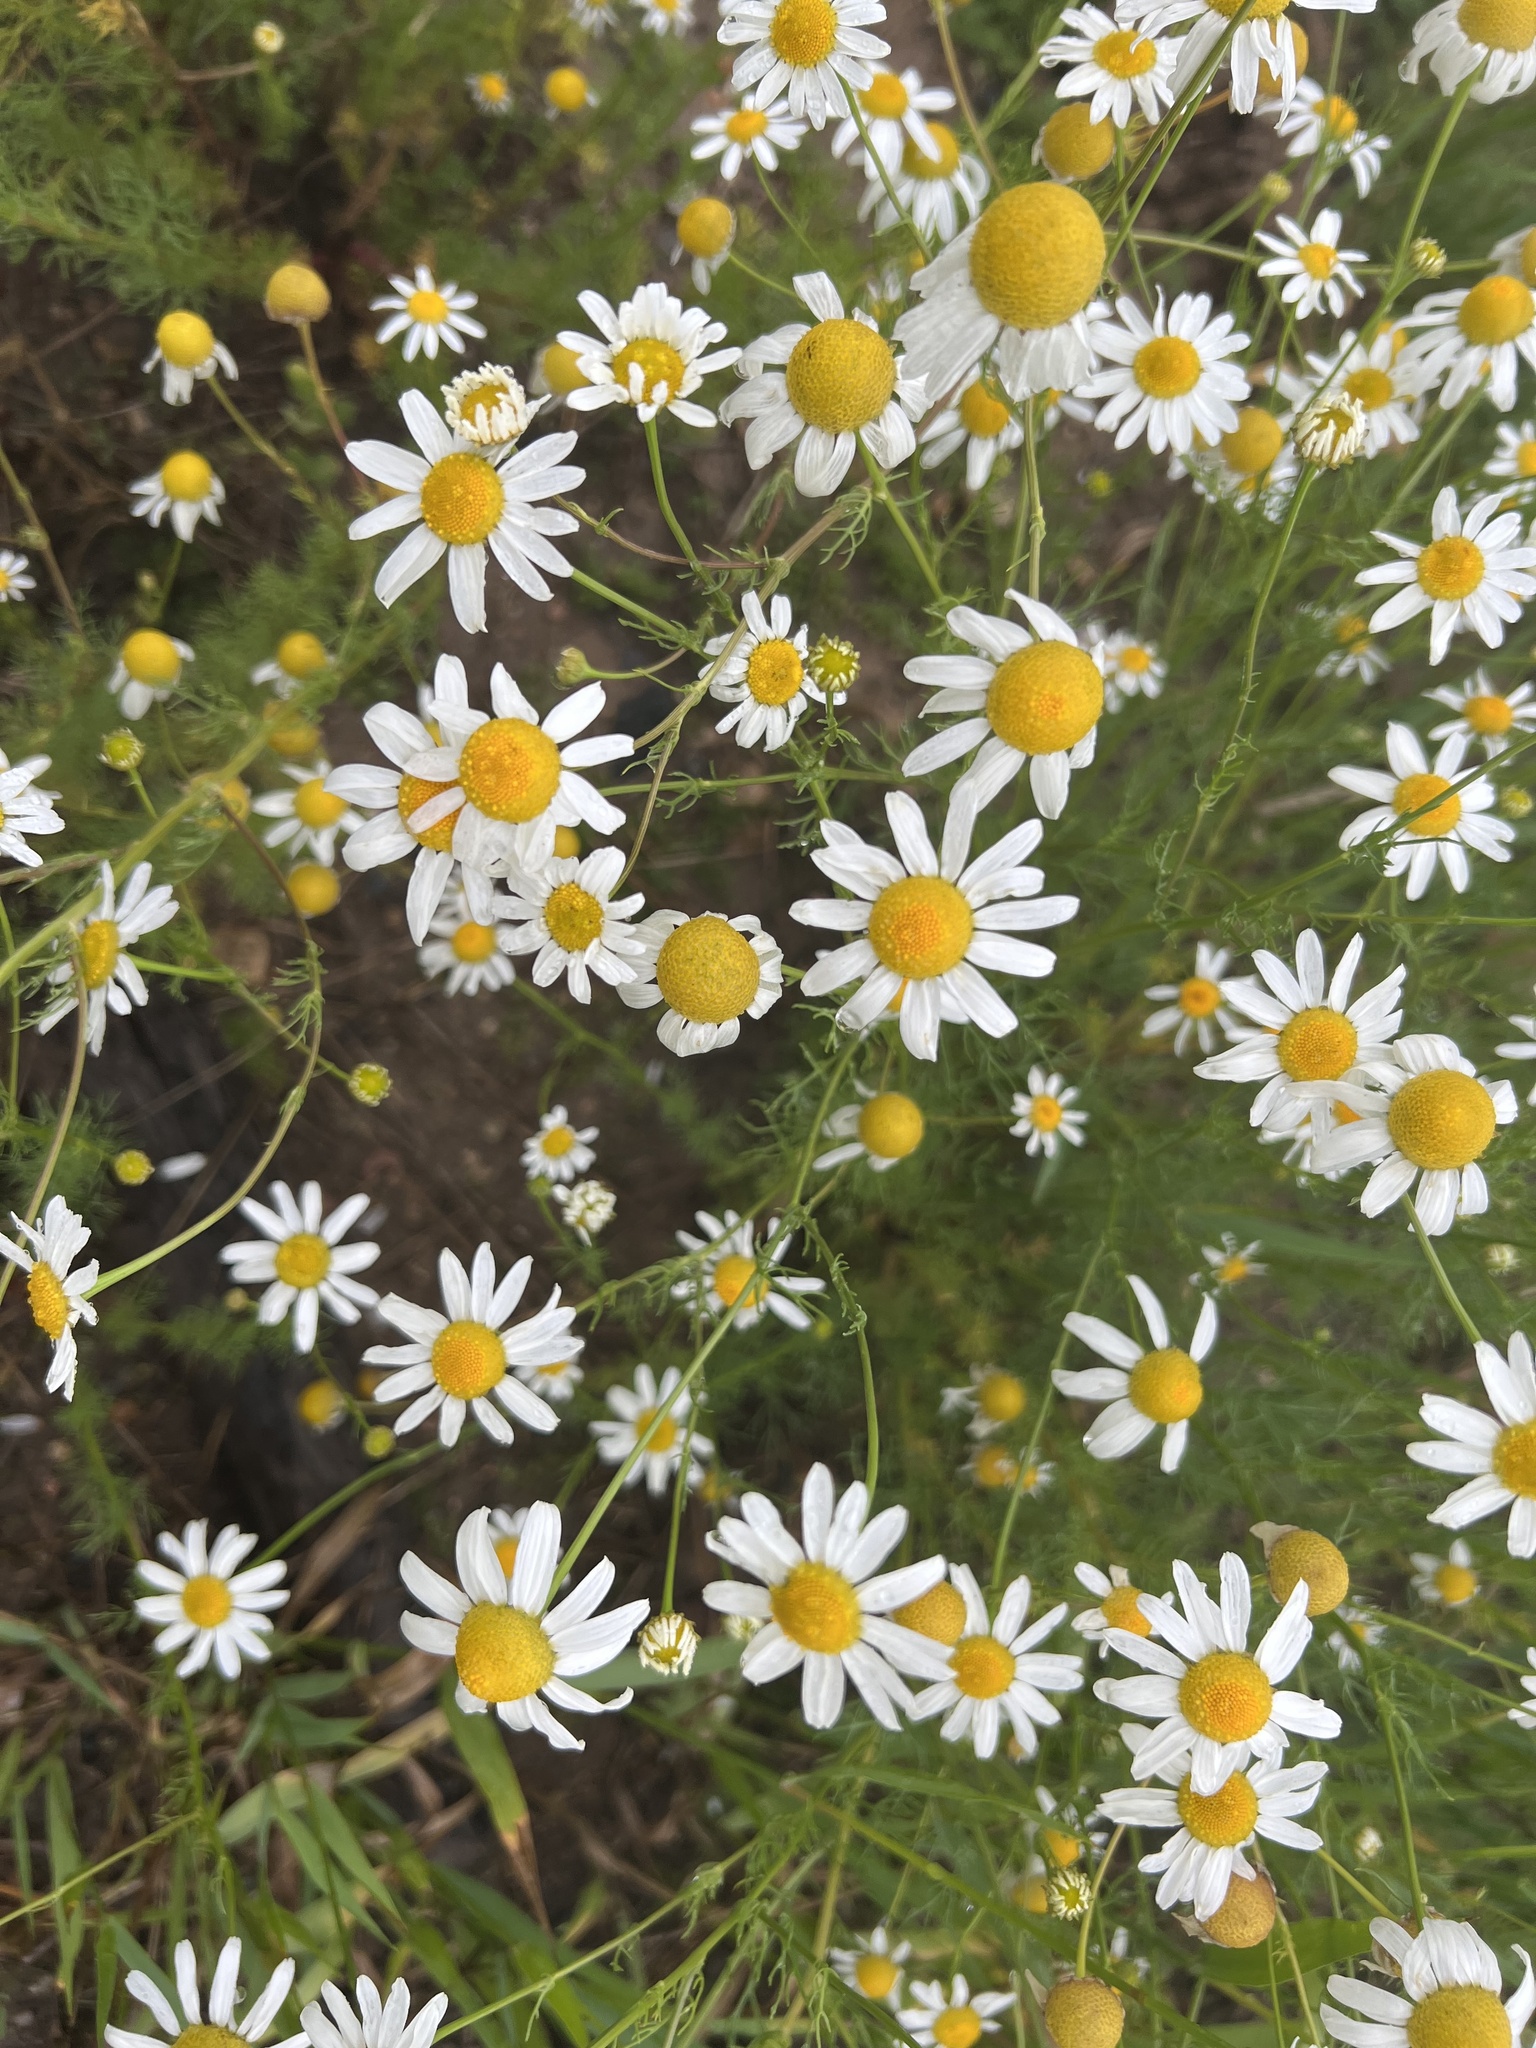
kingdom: Plantae
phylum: Tracheophyta
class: Magnoliopsida
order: Asterales
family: Asteraceae
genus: Tripleurospermum
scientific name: Tripleurospermum inodorum
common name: Scentless mayweed
